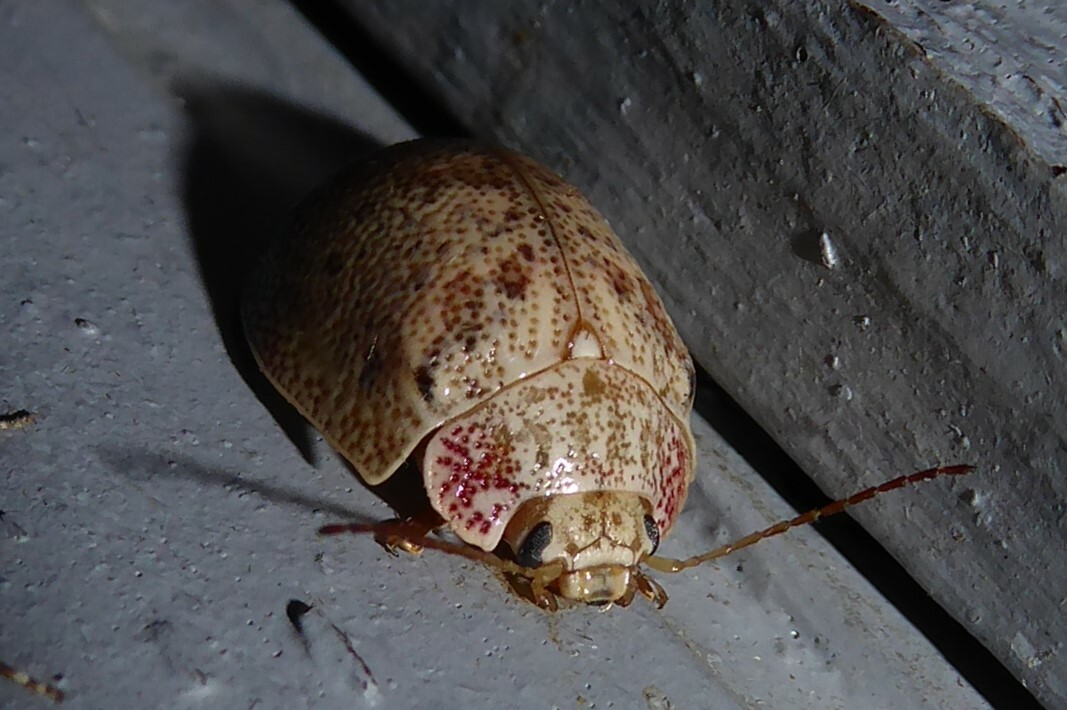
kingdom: Animalia
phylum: Arthropoda
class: Insecta
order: Coleoptera
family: Chrysomelidae
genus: Paropsis
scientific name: Paropsis charybdis
